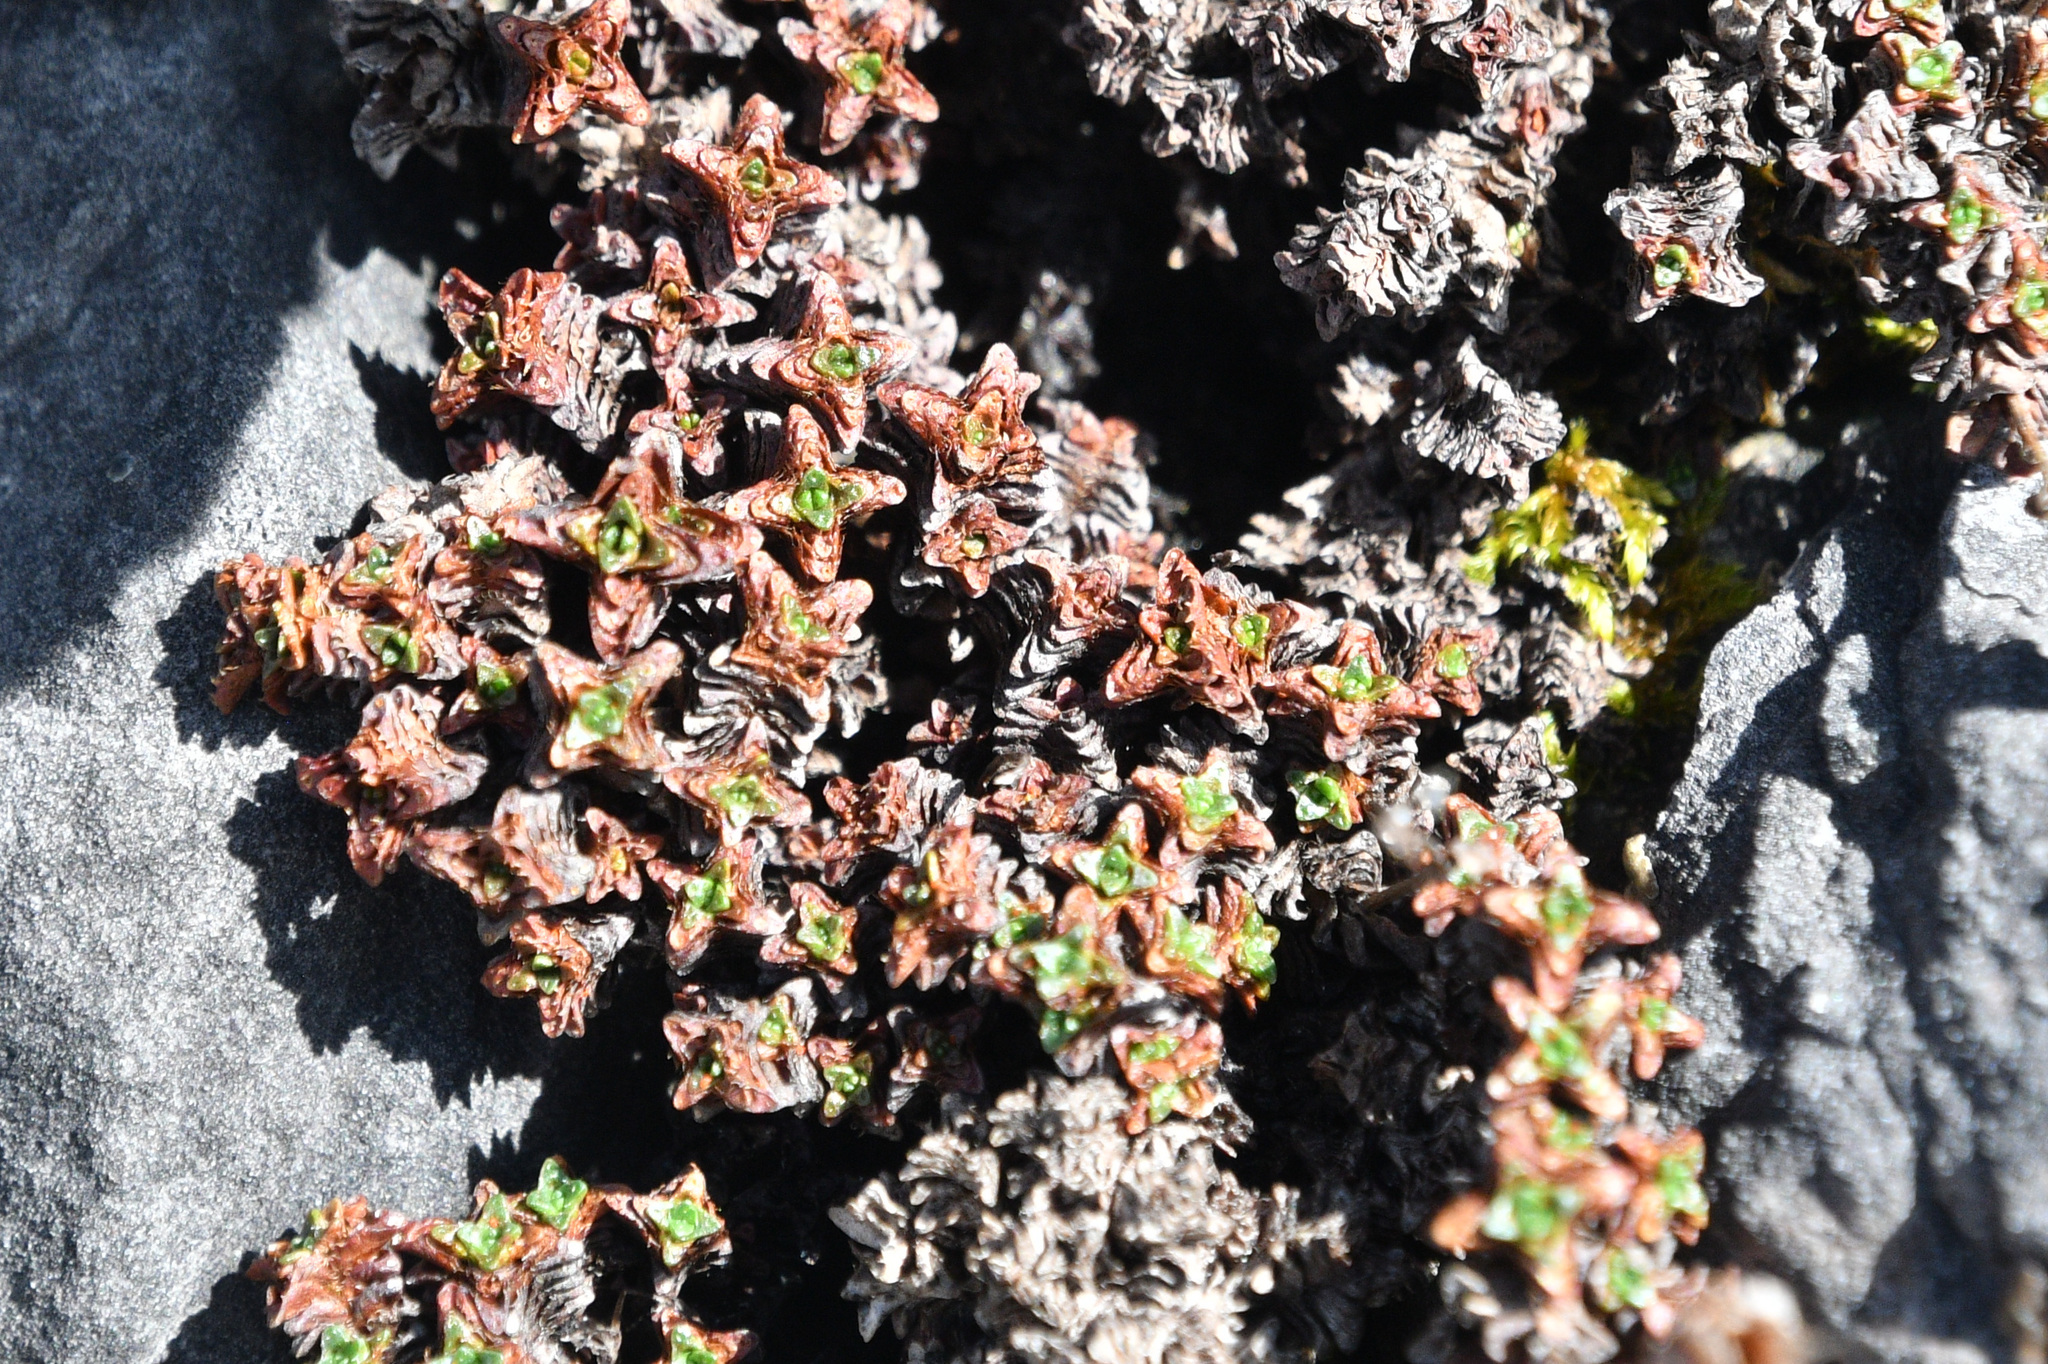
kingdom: Plantae
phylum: Tracheophyta
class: Magnoliopsida
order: Saxifragales
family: Saxifragaceae
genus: Saxifraga
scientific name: Saxifraga oppositifolia
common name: Purple saxifrage
